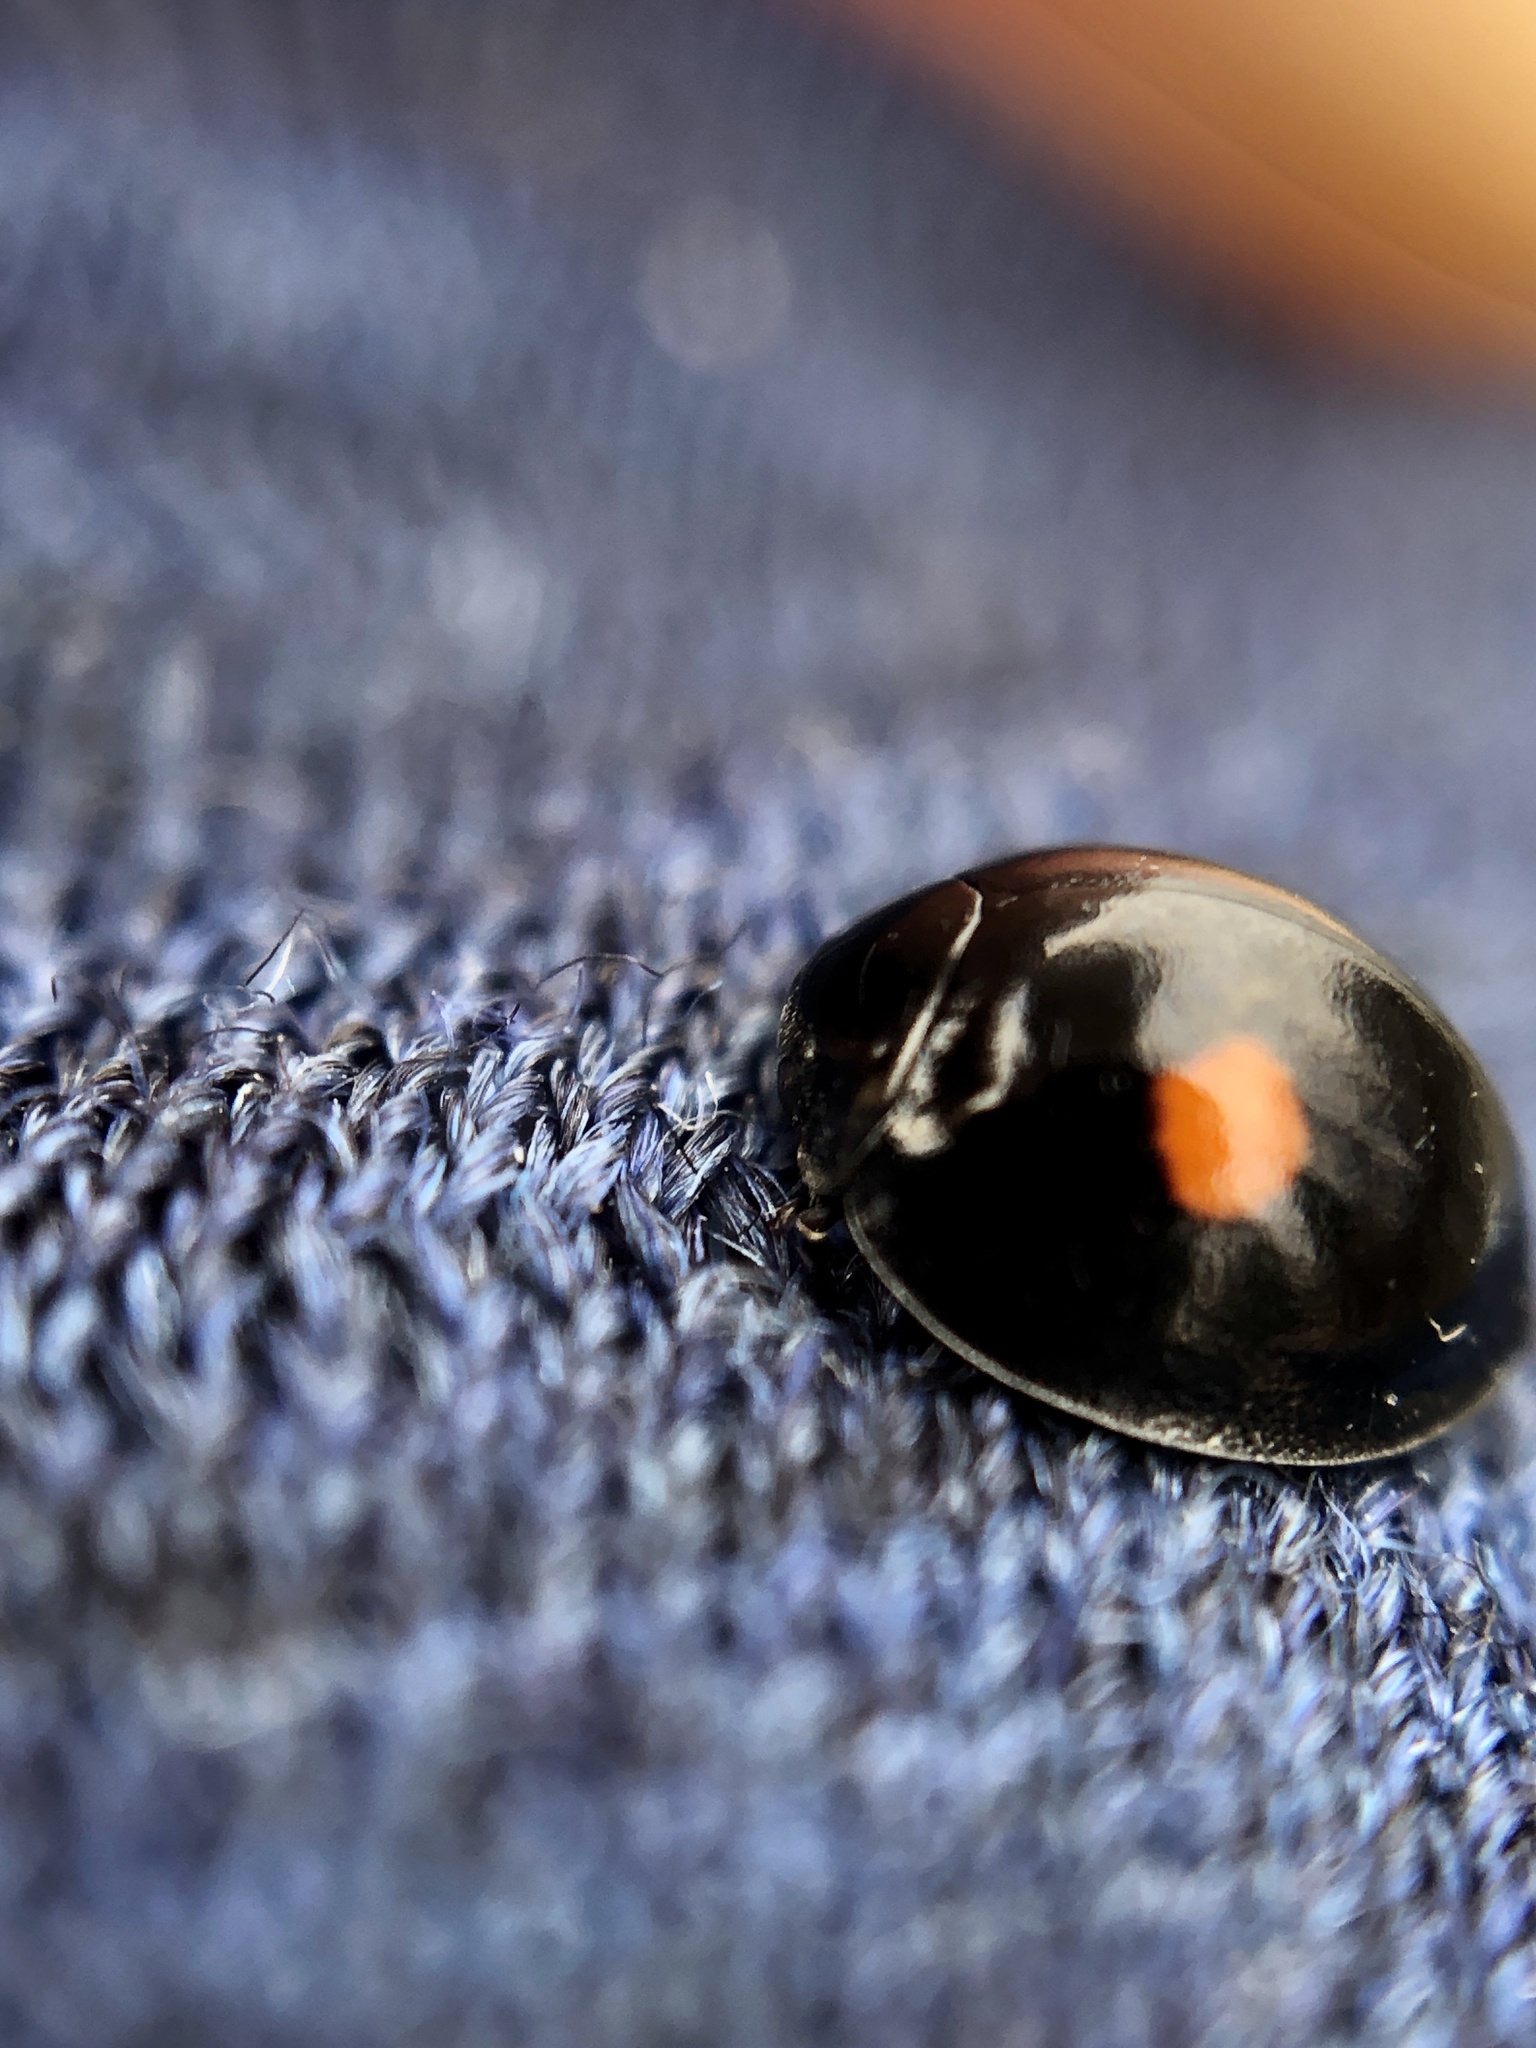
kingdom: Animalia
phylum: Arthropoda
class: Insecta
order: Coleoptera
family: Coccinellidae
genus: Chilocorus
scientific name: Chilocorus stigma
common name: Twicestabbed lady beetle
